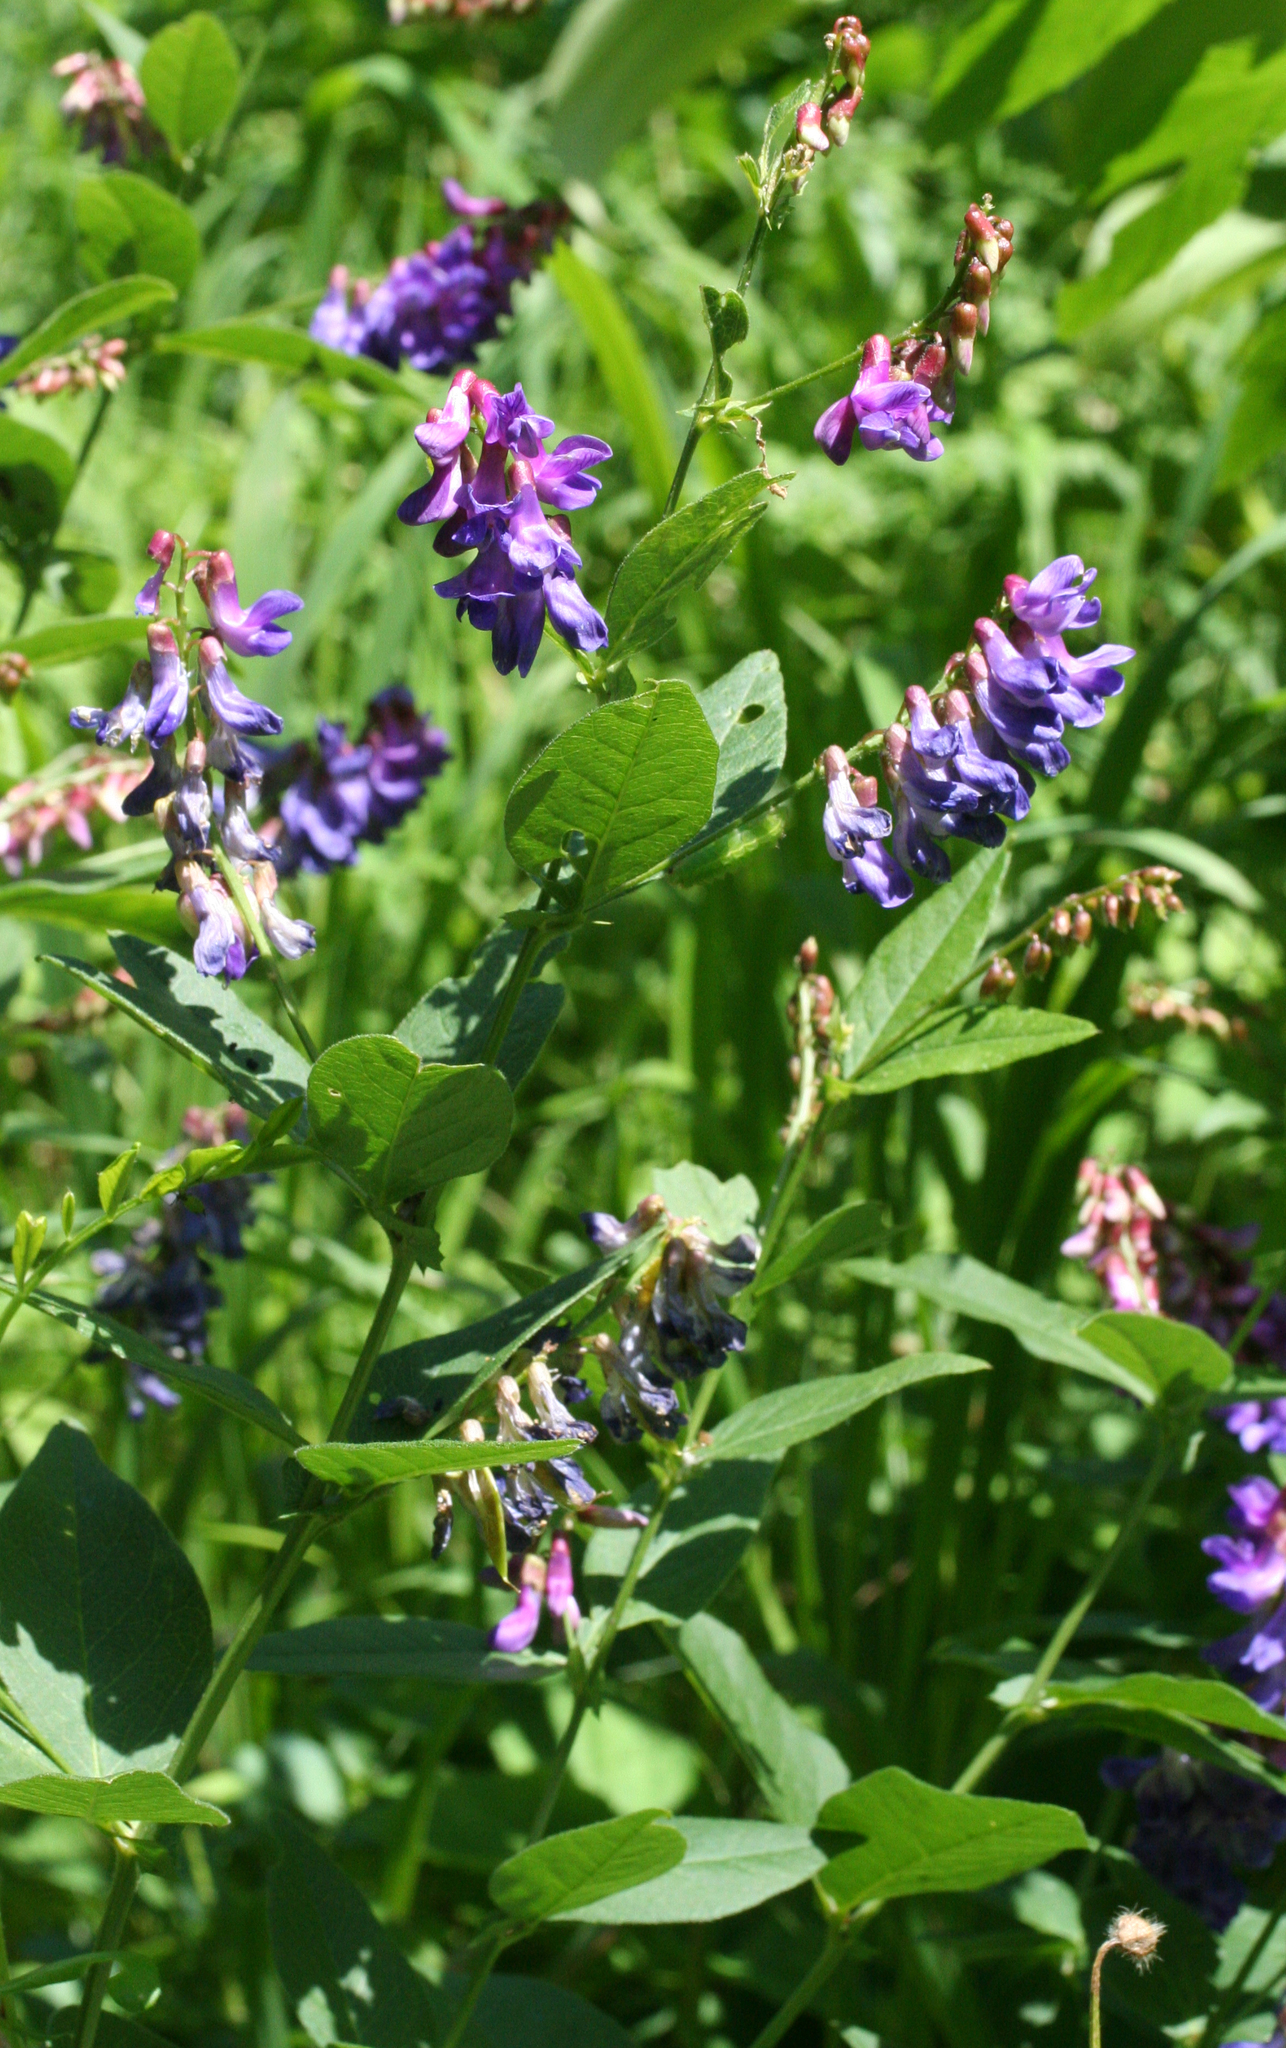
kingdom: Plantae
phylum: Tracheophyta
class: Magnoliopsida
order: Fabales
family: Fabaceae
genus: Vicia
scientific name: Vicia unijuga
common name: Two-leaf vetch
